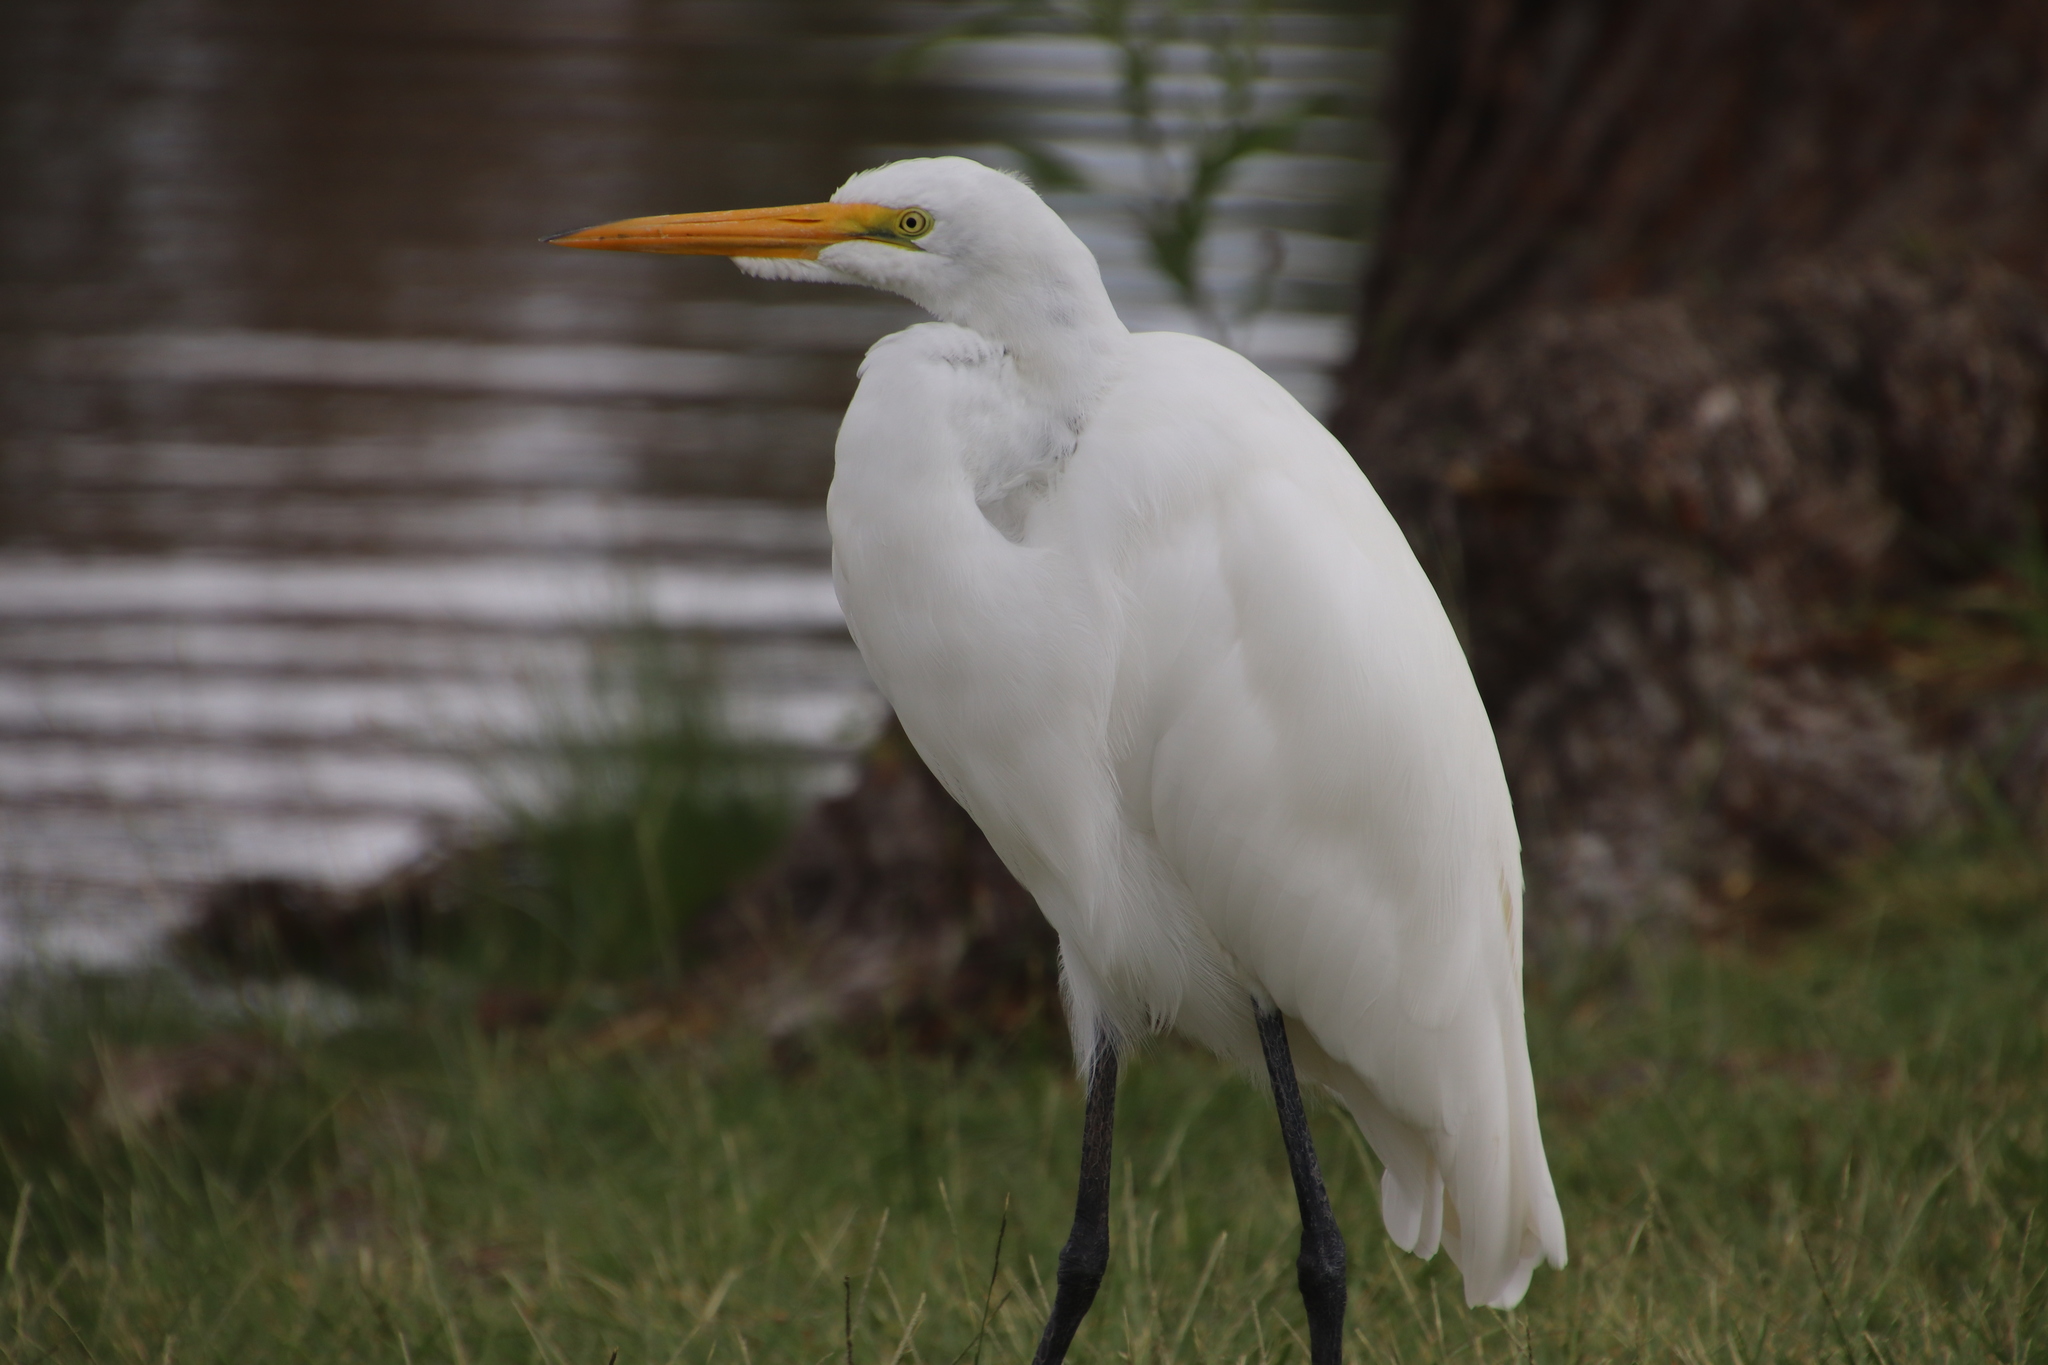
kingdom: Animalia
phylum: Chordata
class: Aves
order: Pelecaniformes
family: Ardeidae
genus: Ardea
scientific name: Ardea alba
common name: Great egret
